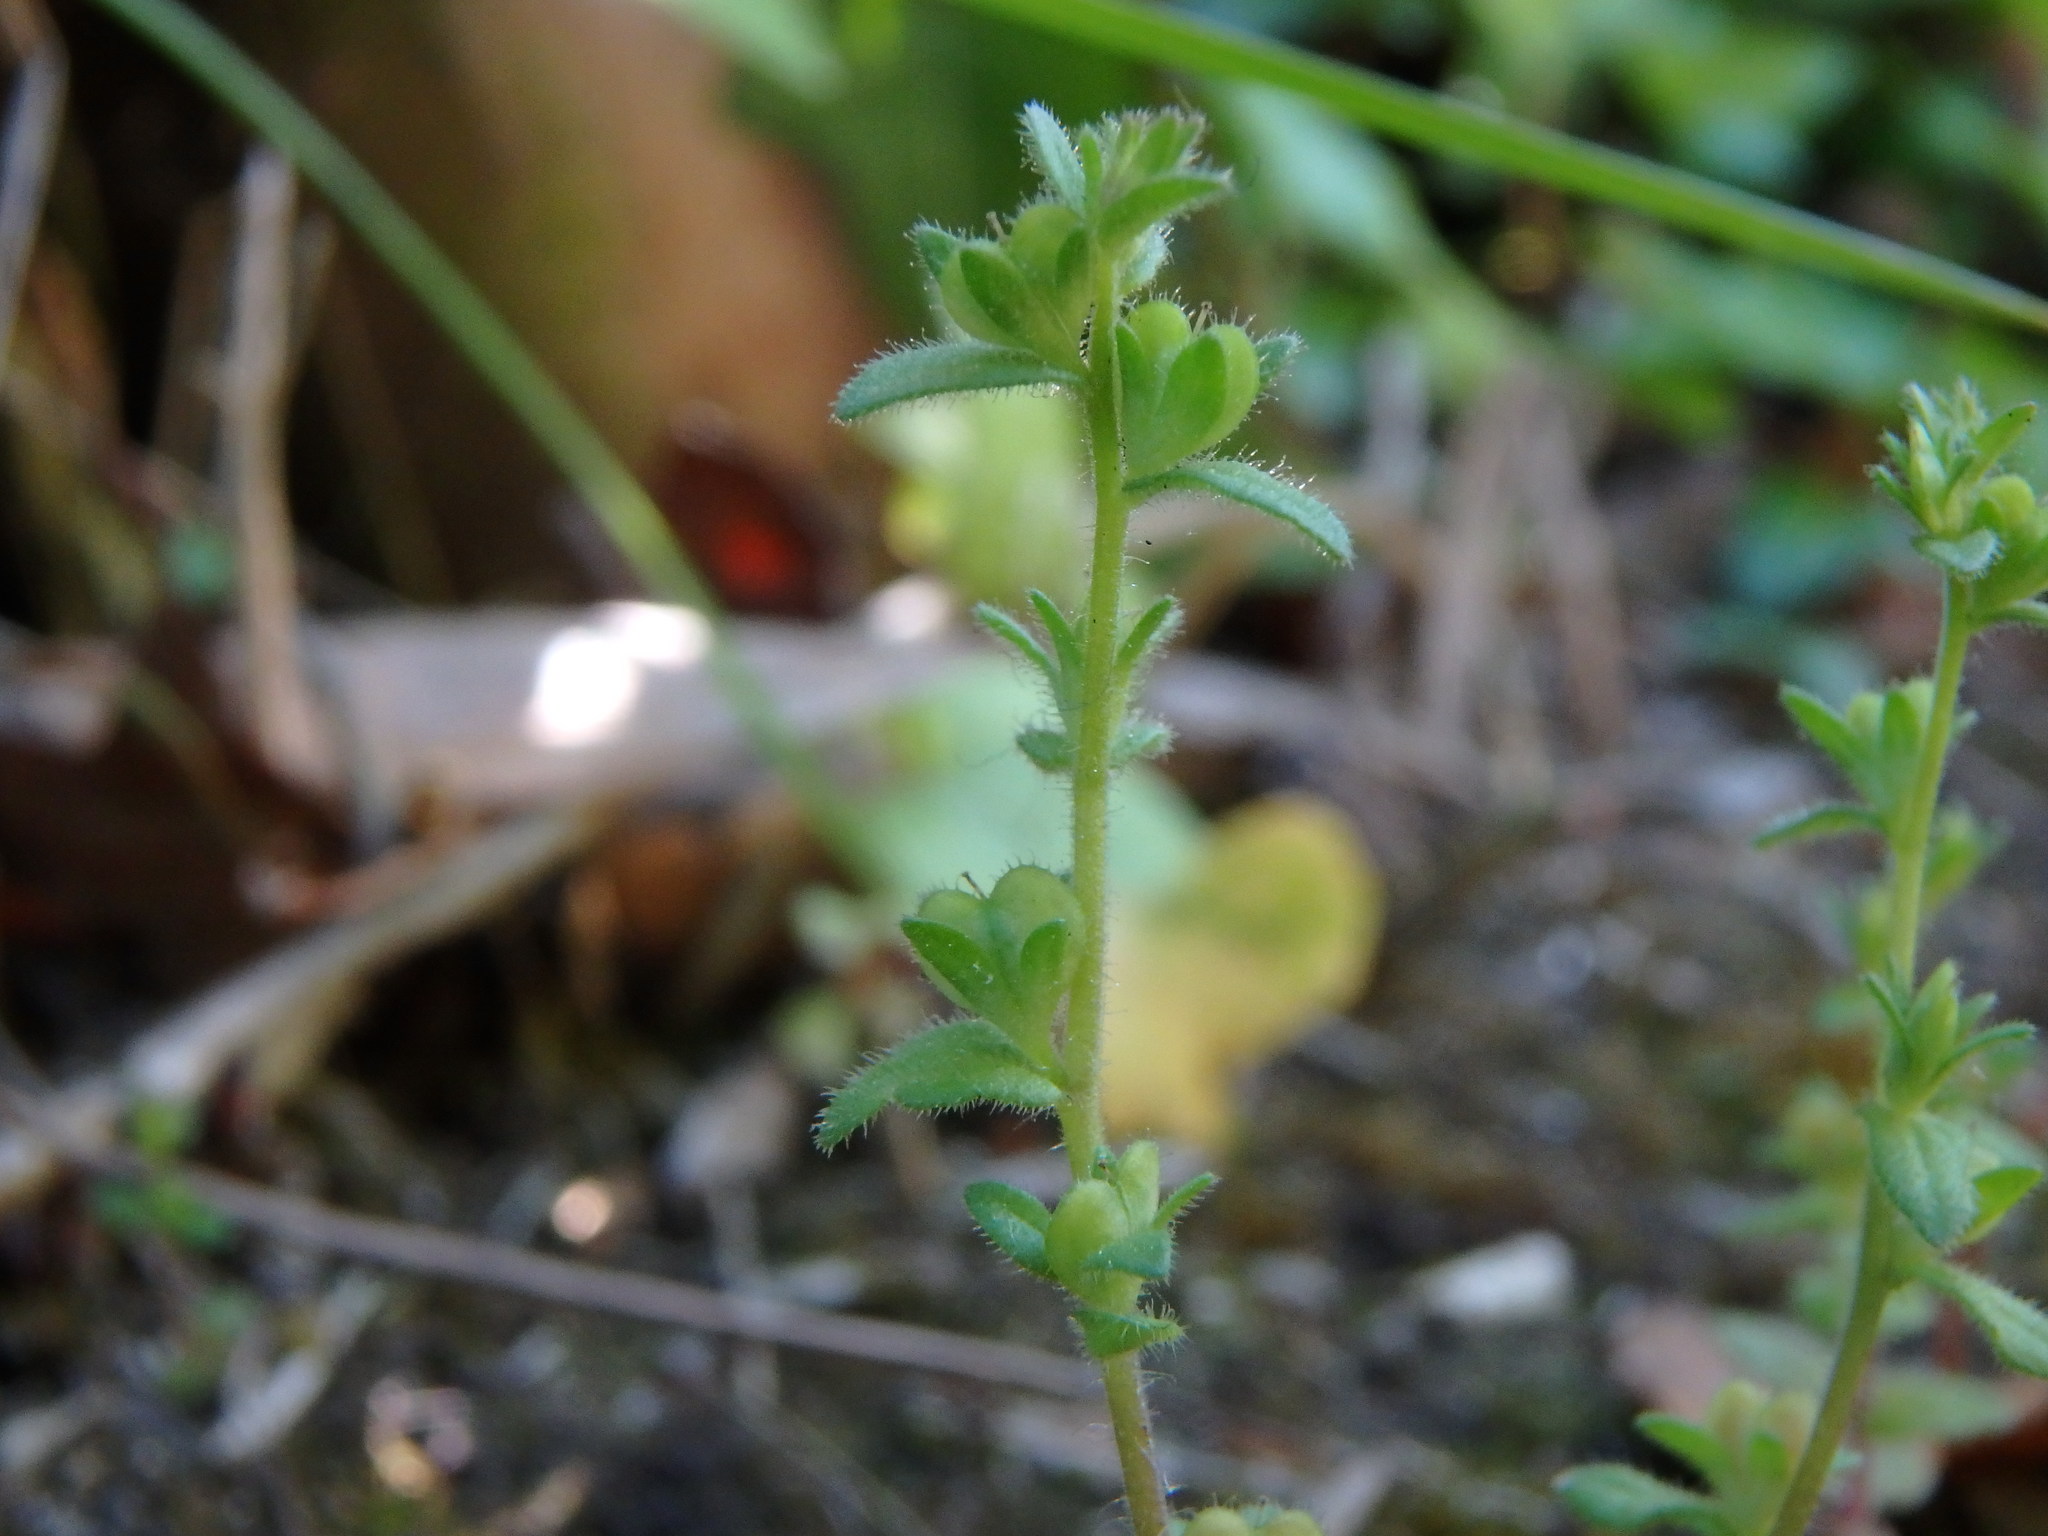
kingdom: Plantae
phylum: Tracheophyta
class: Magnoliopsida
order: Lamiales
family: Plantaginaceae
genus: Veronica
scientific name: Veronica arvensis
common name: Corn speedwell
